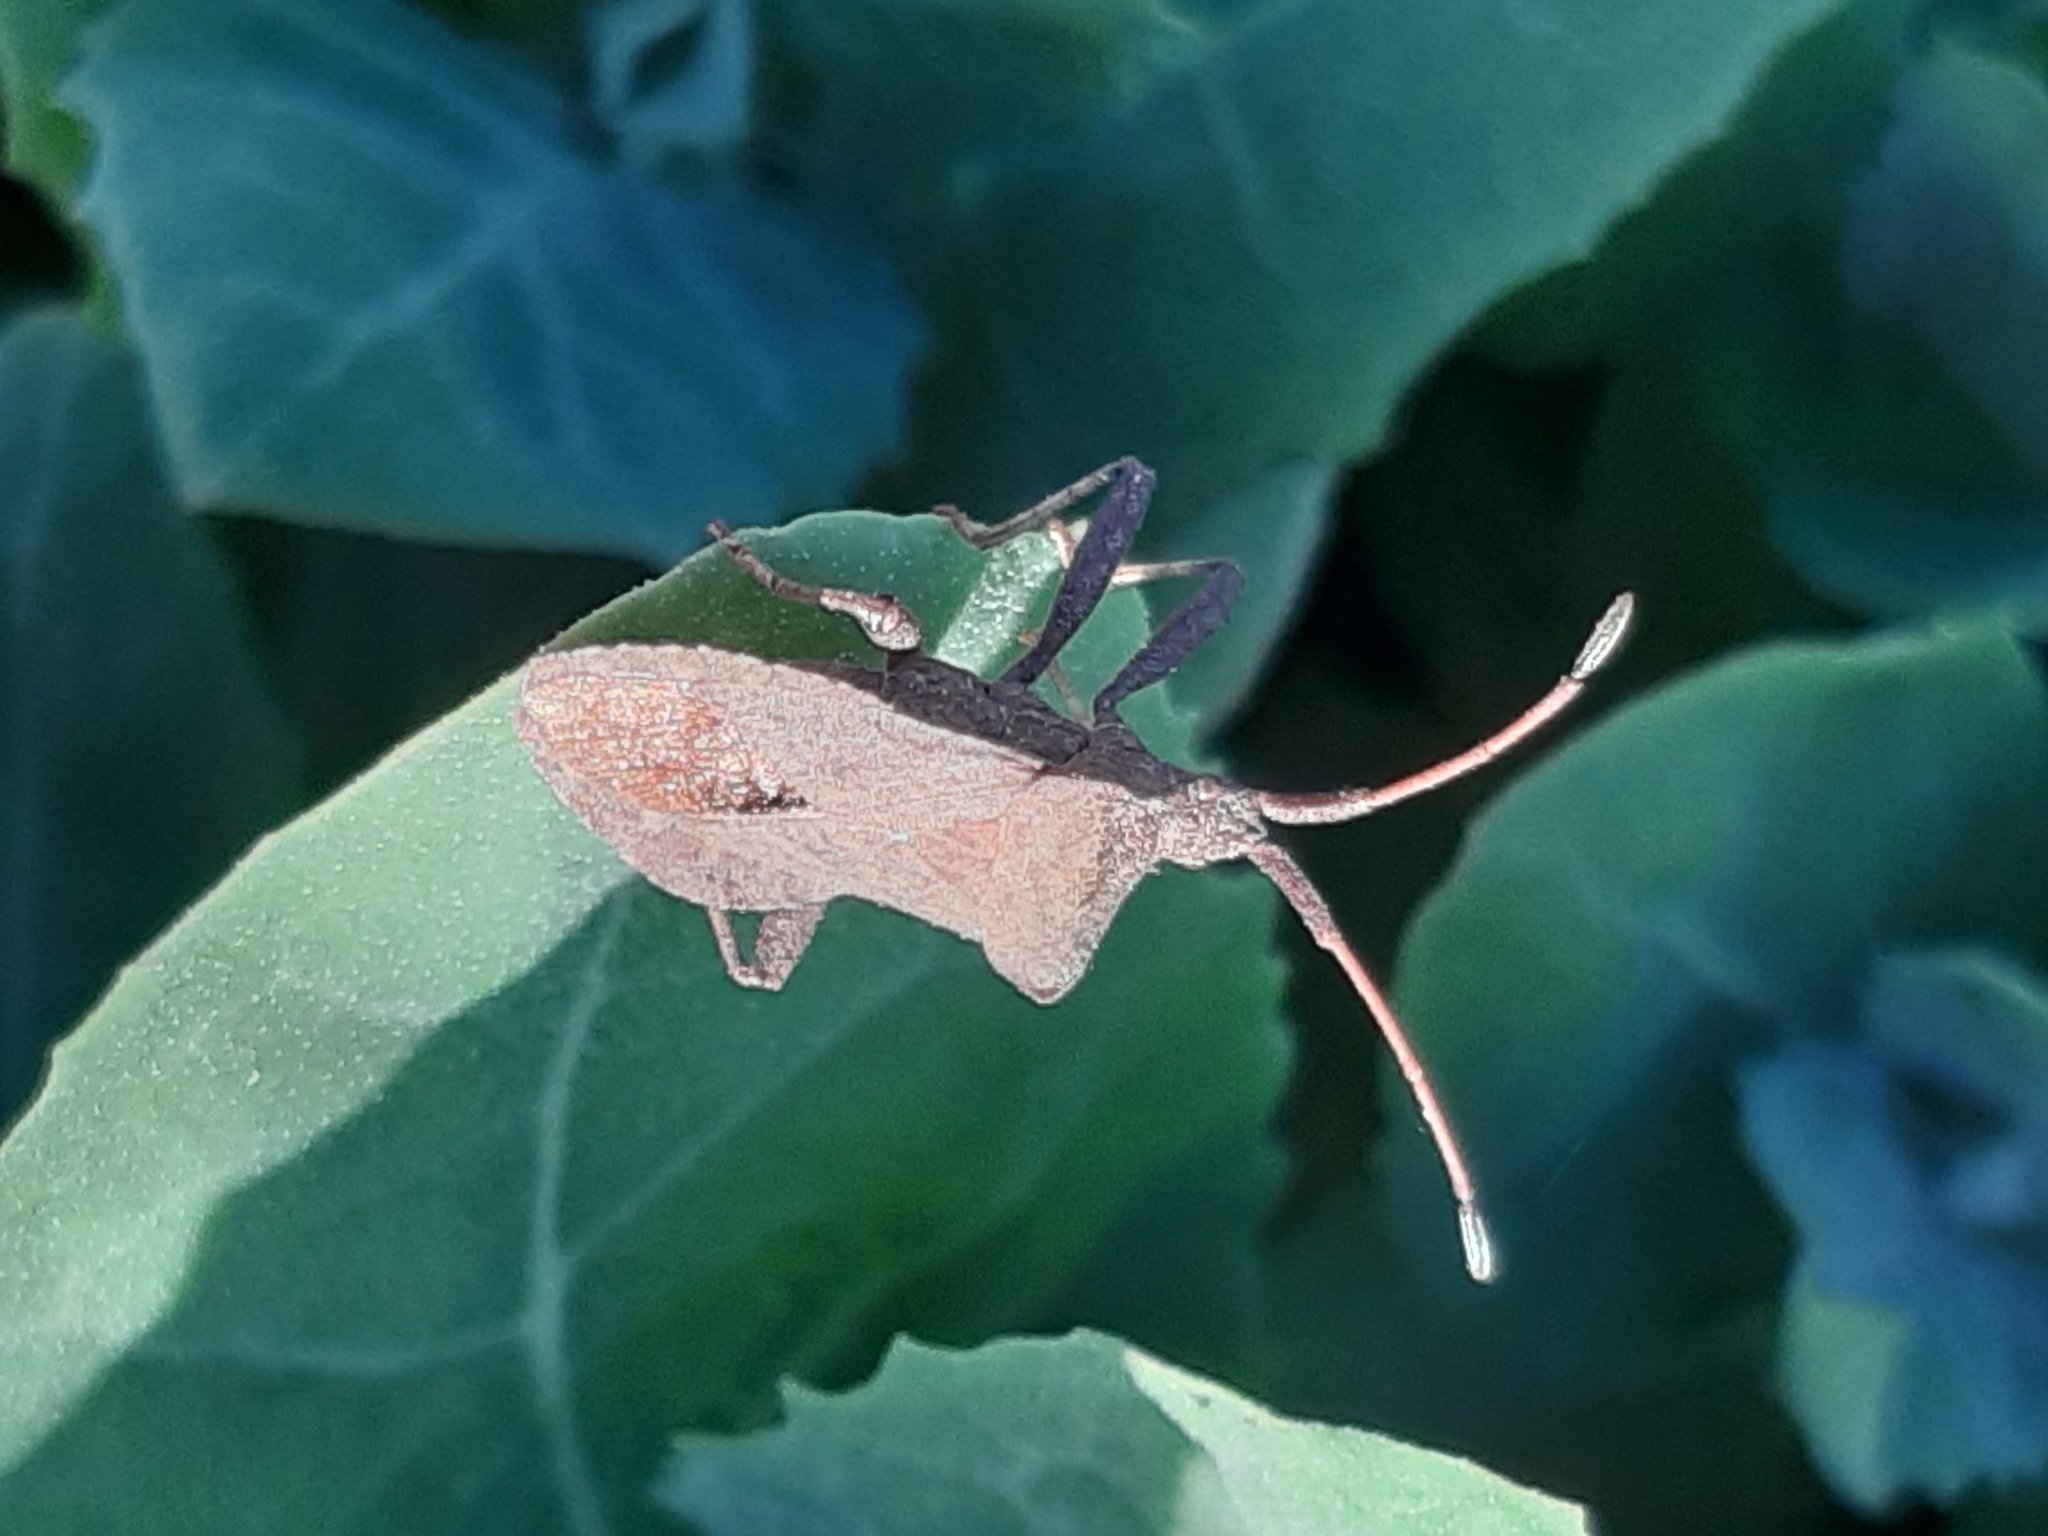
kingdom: Animalia
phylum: Arthropoda
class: Insecta
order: Hemiptera
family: Coreidae
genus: Coreus
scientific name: Coreus marginatus
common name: Dock bug
